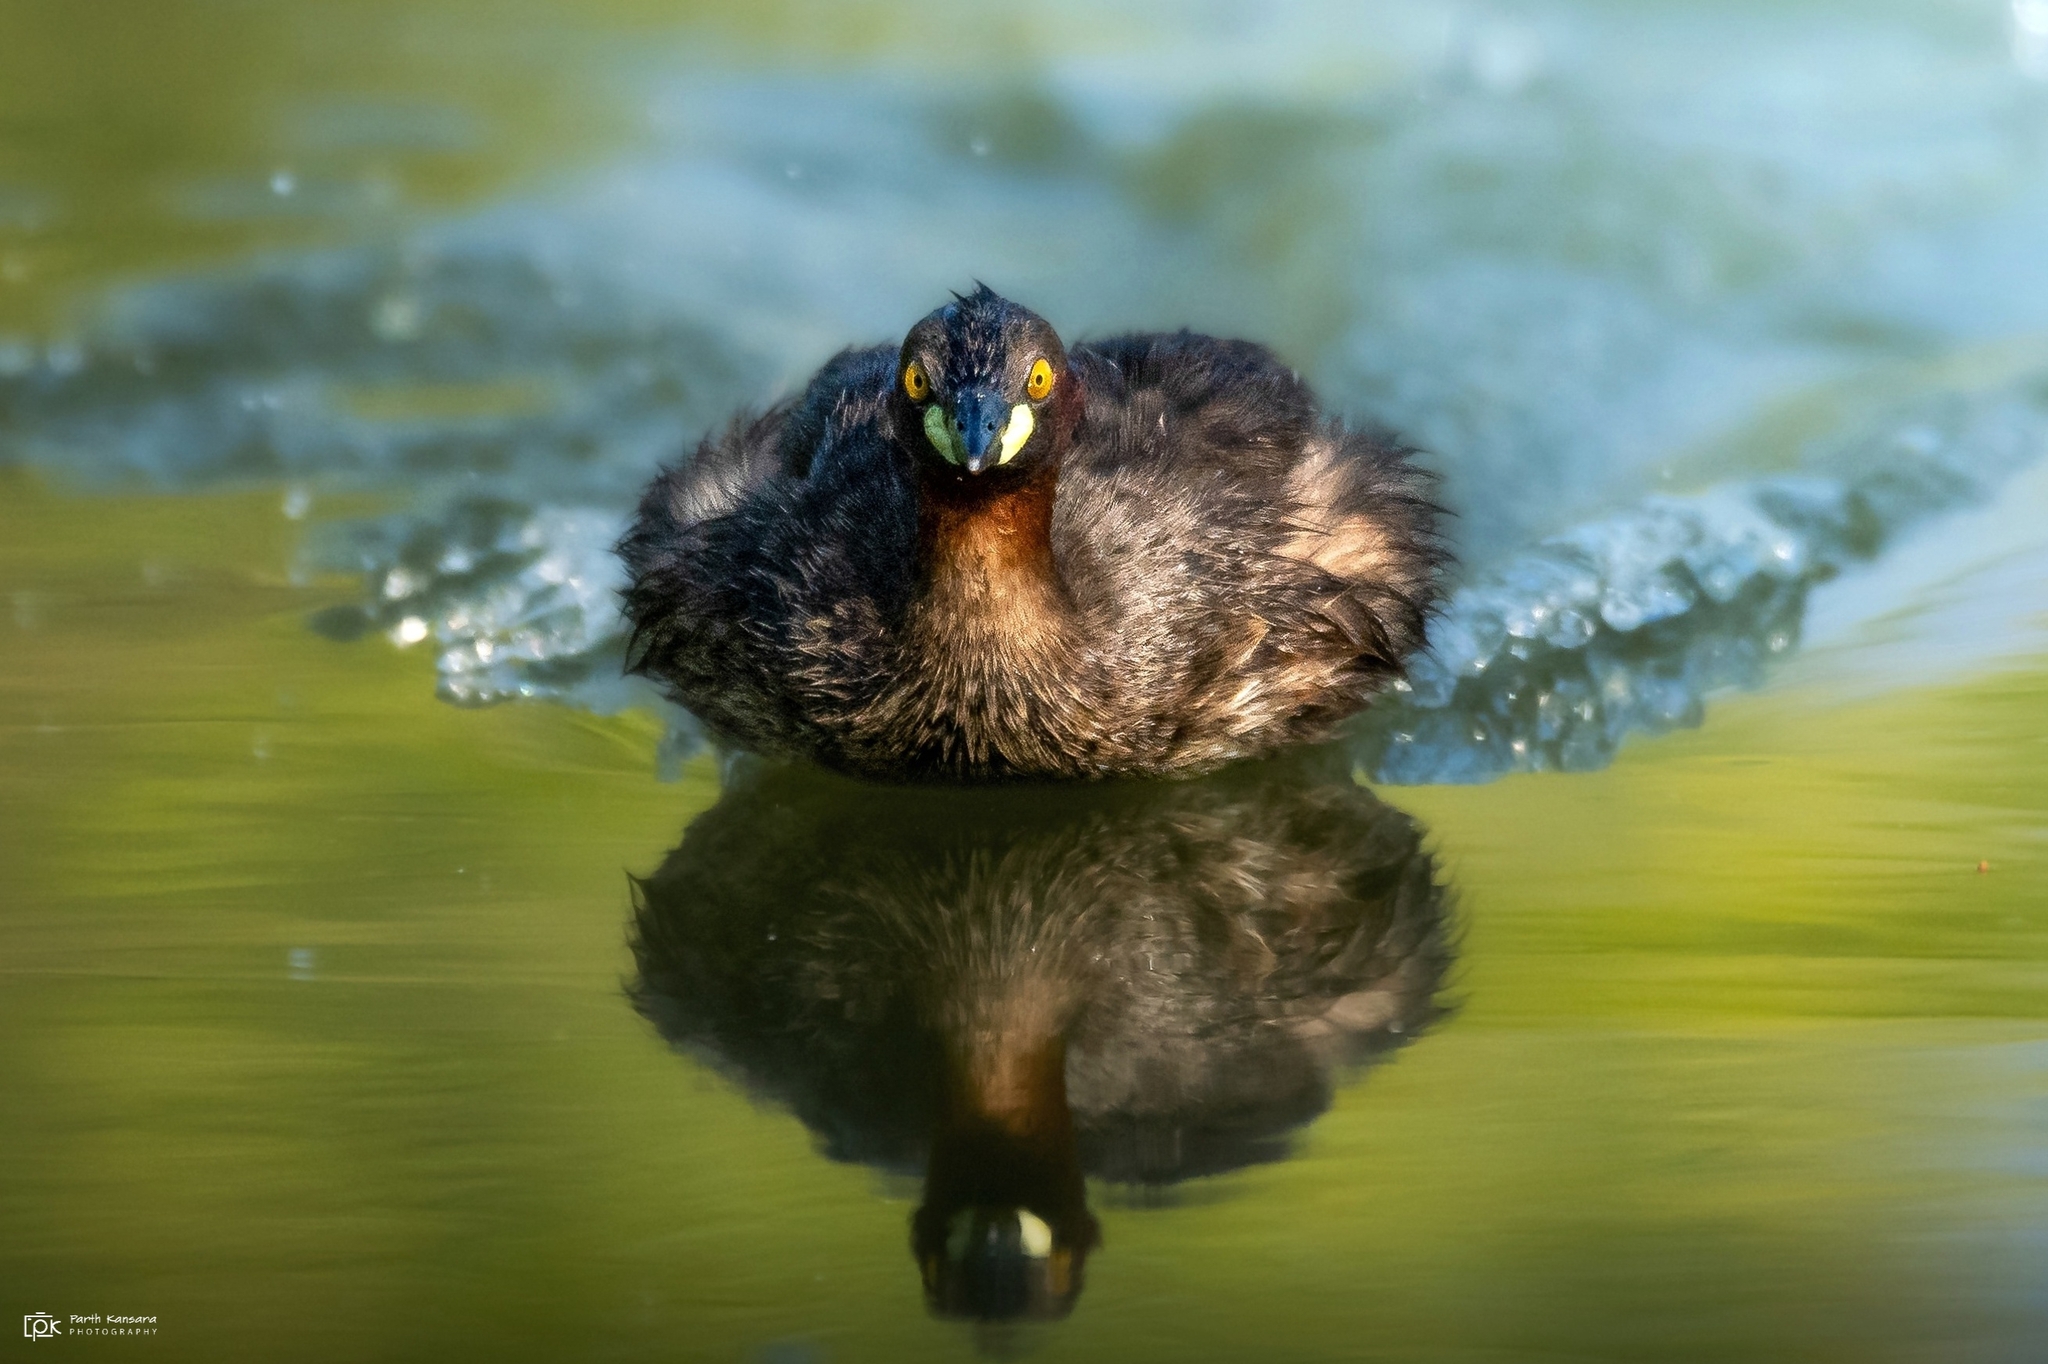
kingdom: Animalia
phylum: Chordata
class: Aves
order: Podicipediformes
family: Podicipedidae
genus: Tachybaptus
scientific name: Tachybaptus ruficollis
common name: Little grebe
